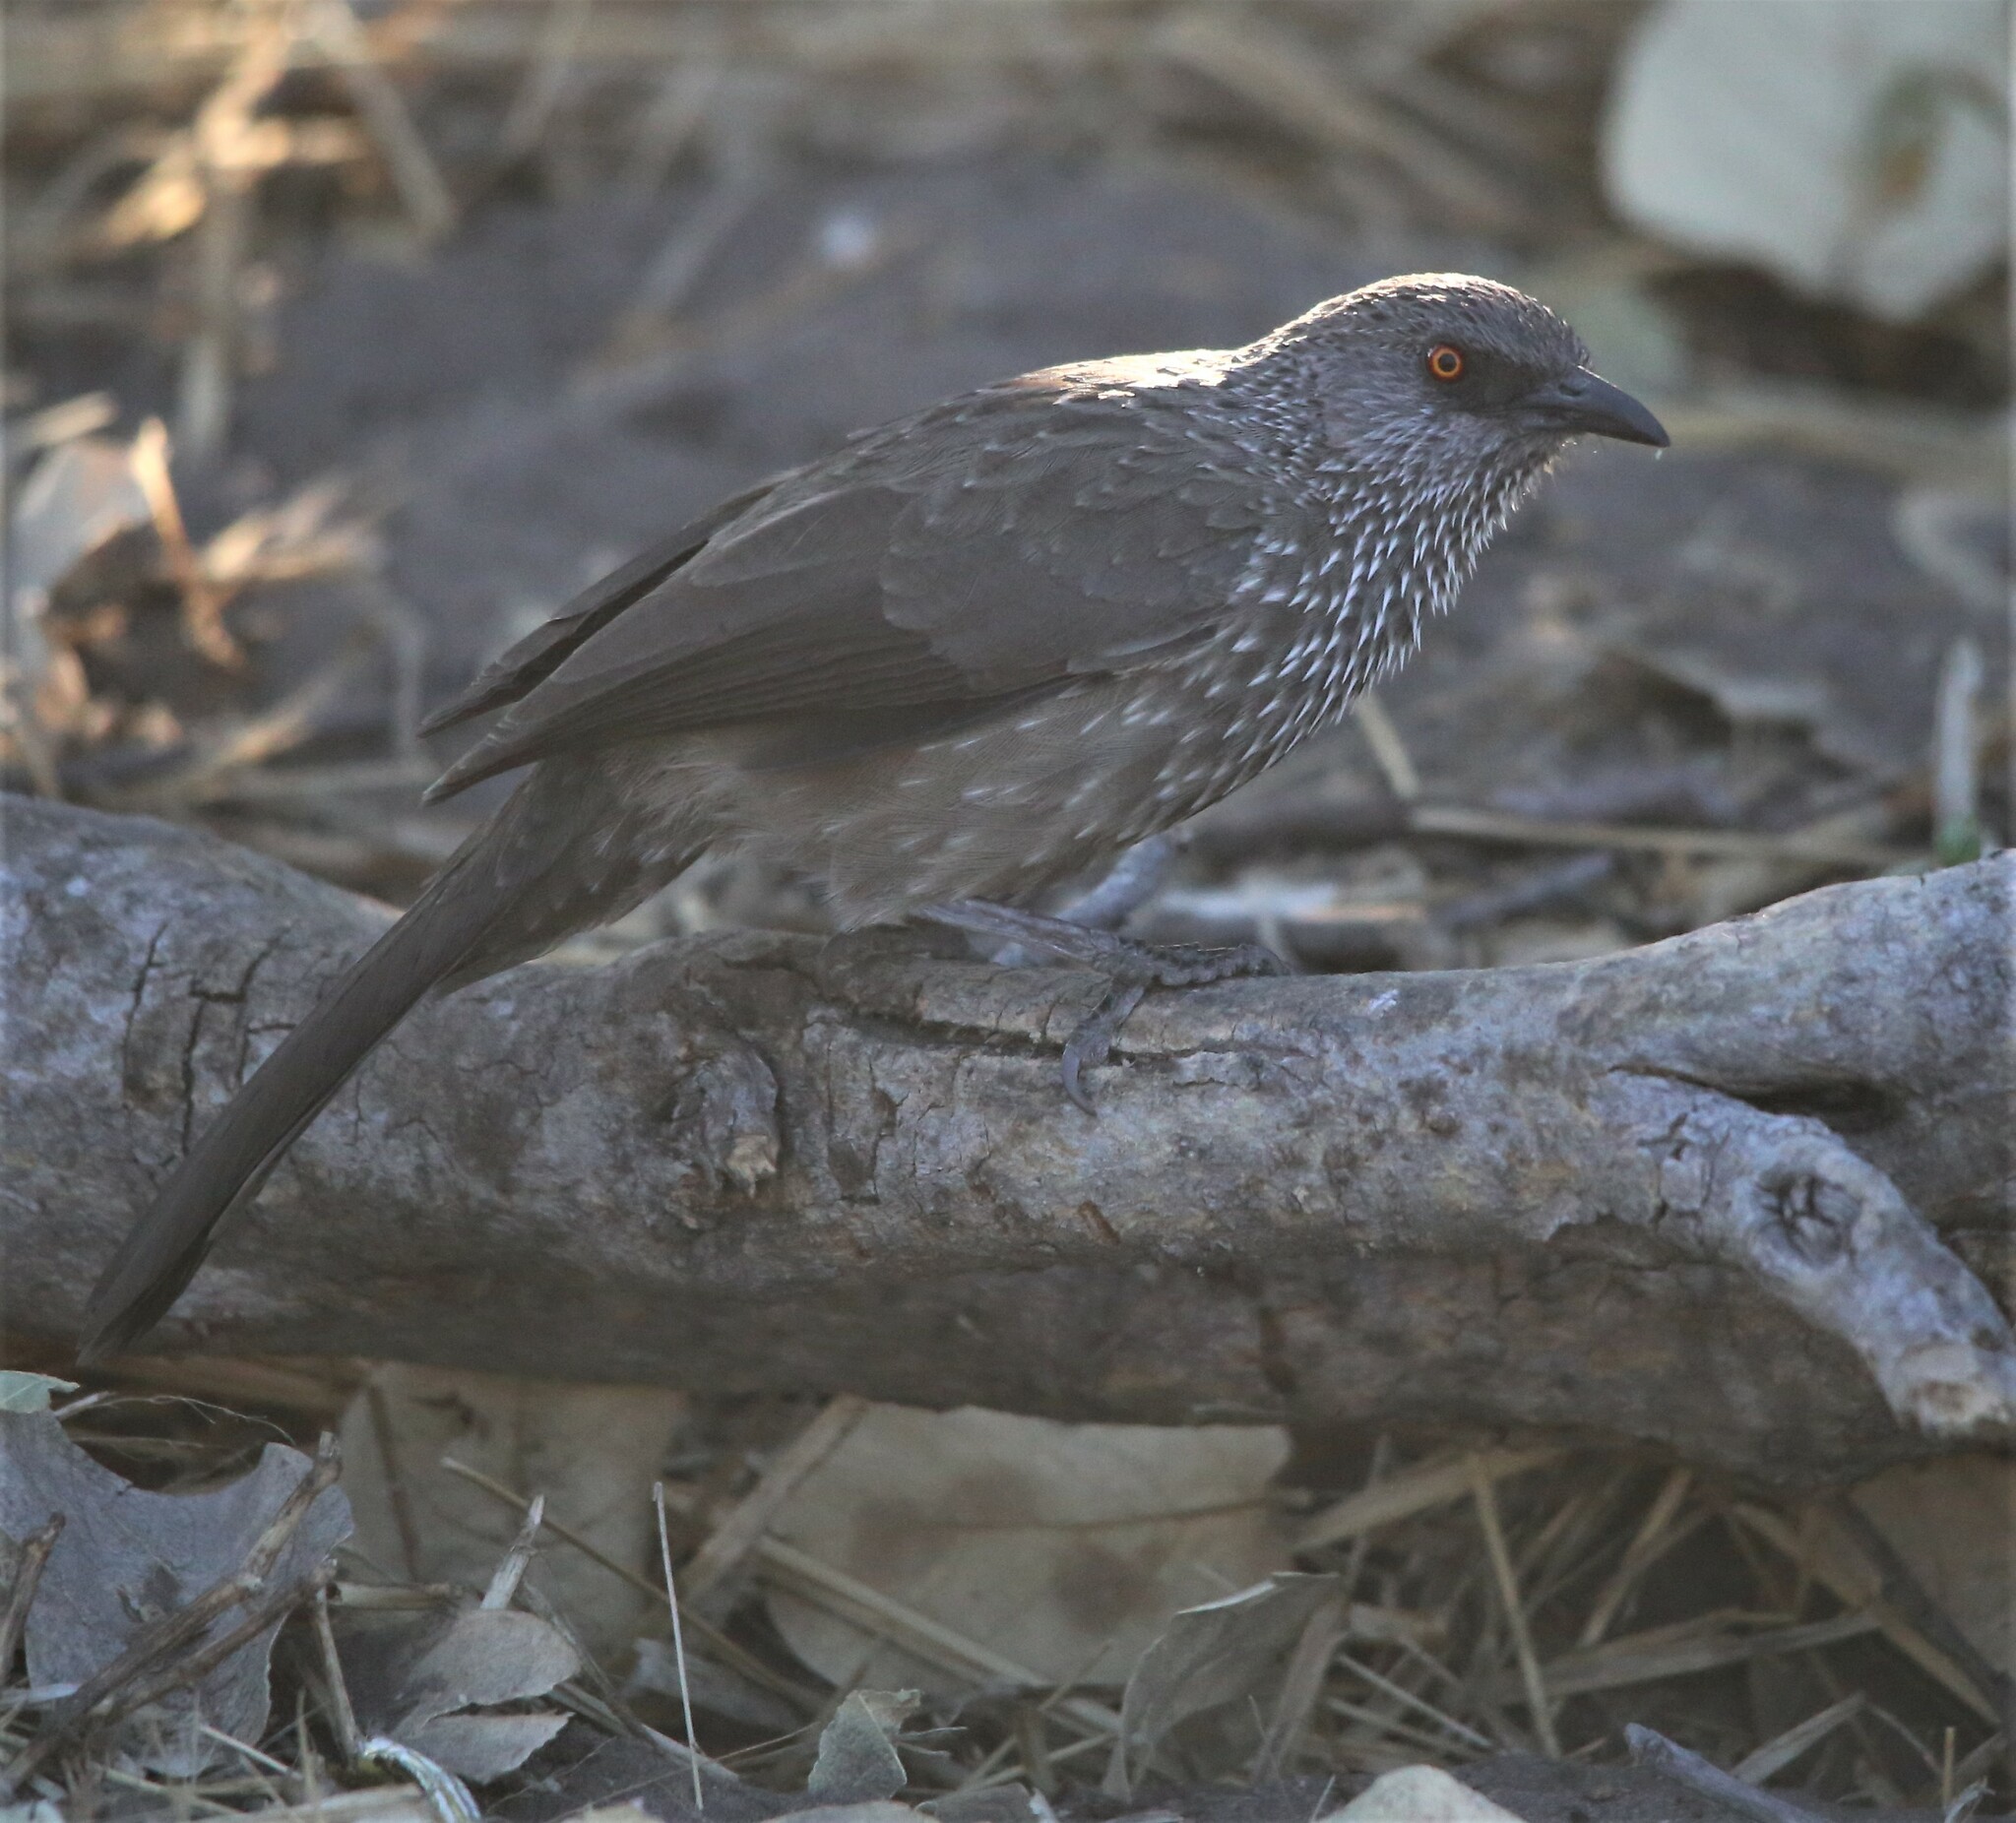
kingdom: Animalia
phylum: Chordata
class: Aves
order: Passeriformes
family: Leiothrichidae
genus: Turdoides
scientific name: Turdoides jardineii
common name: Arrow-marked babbler
